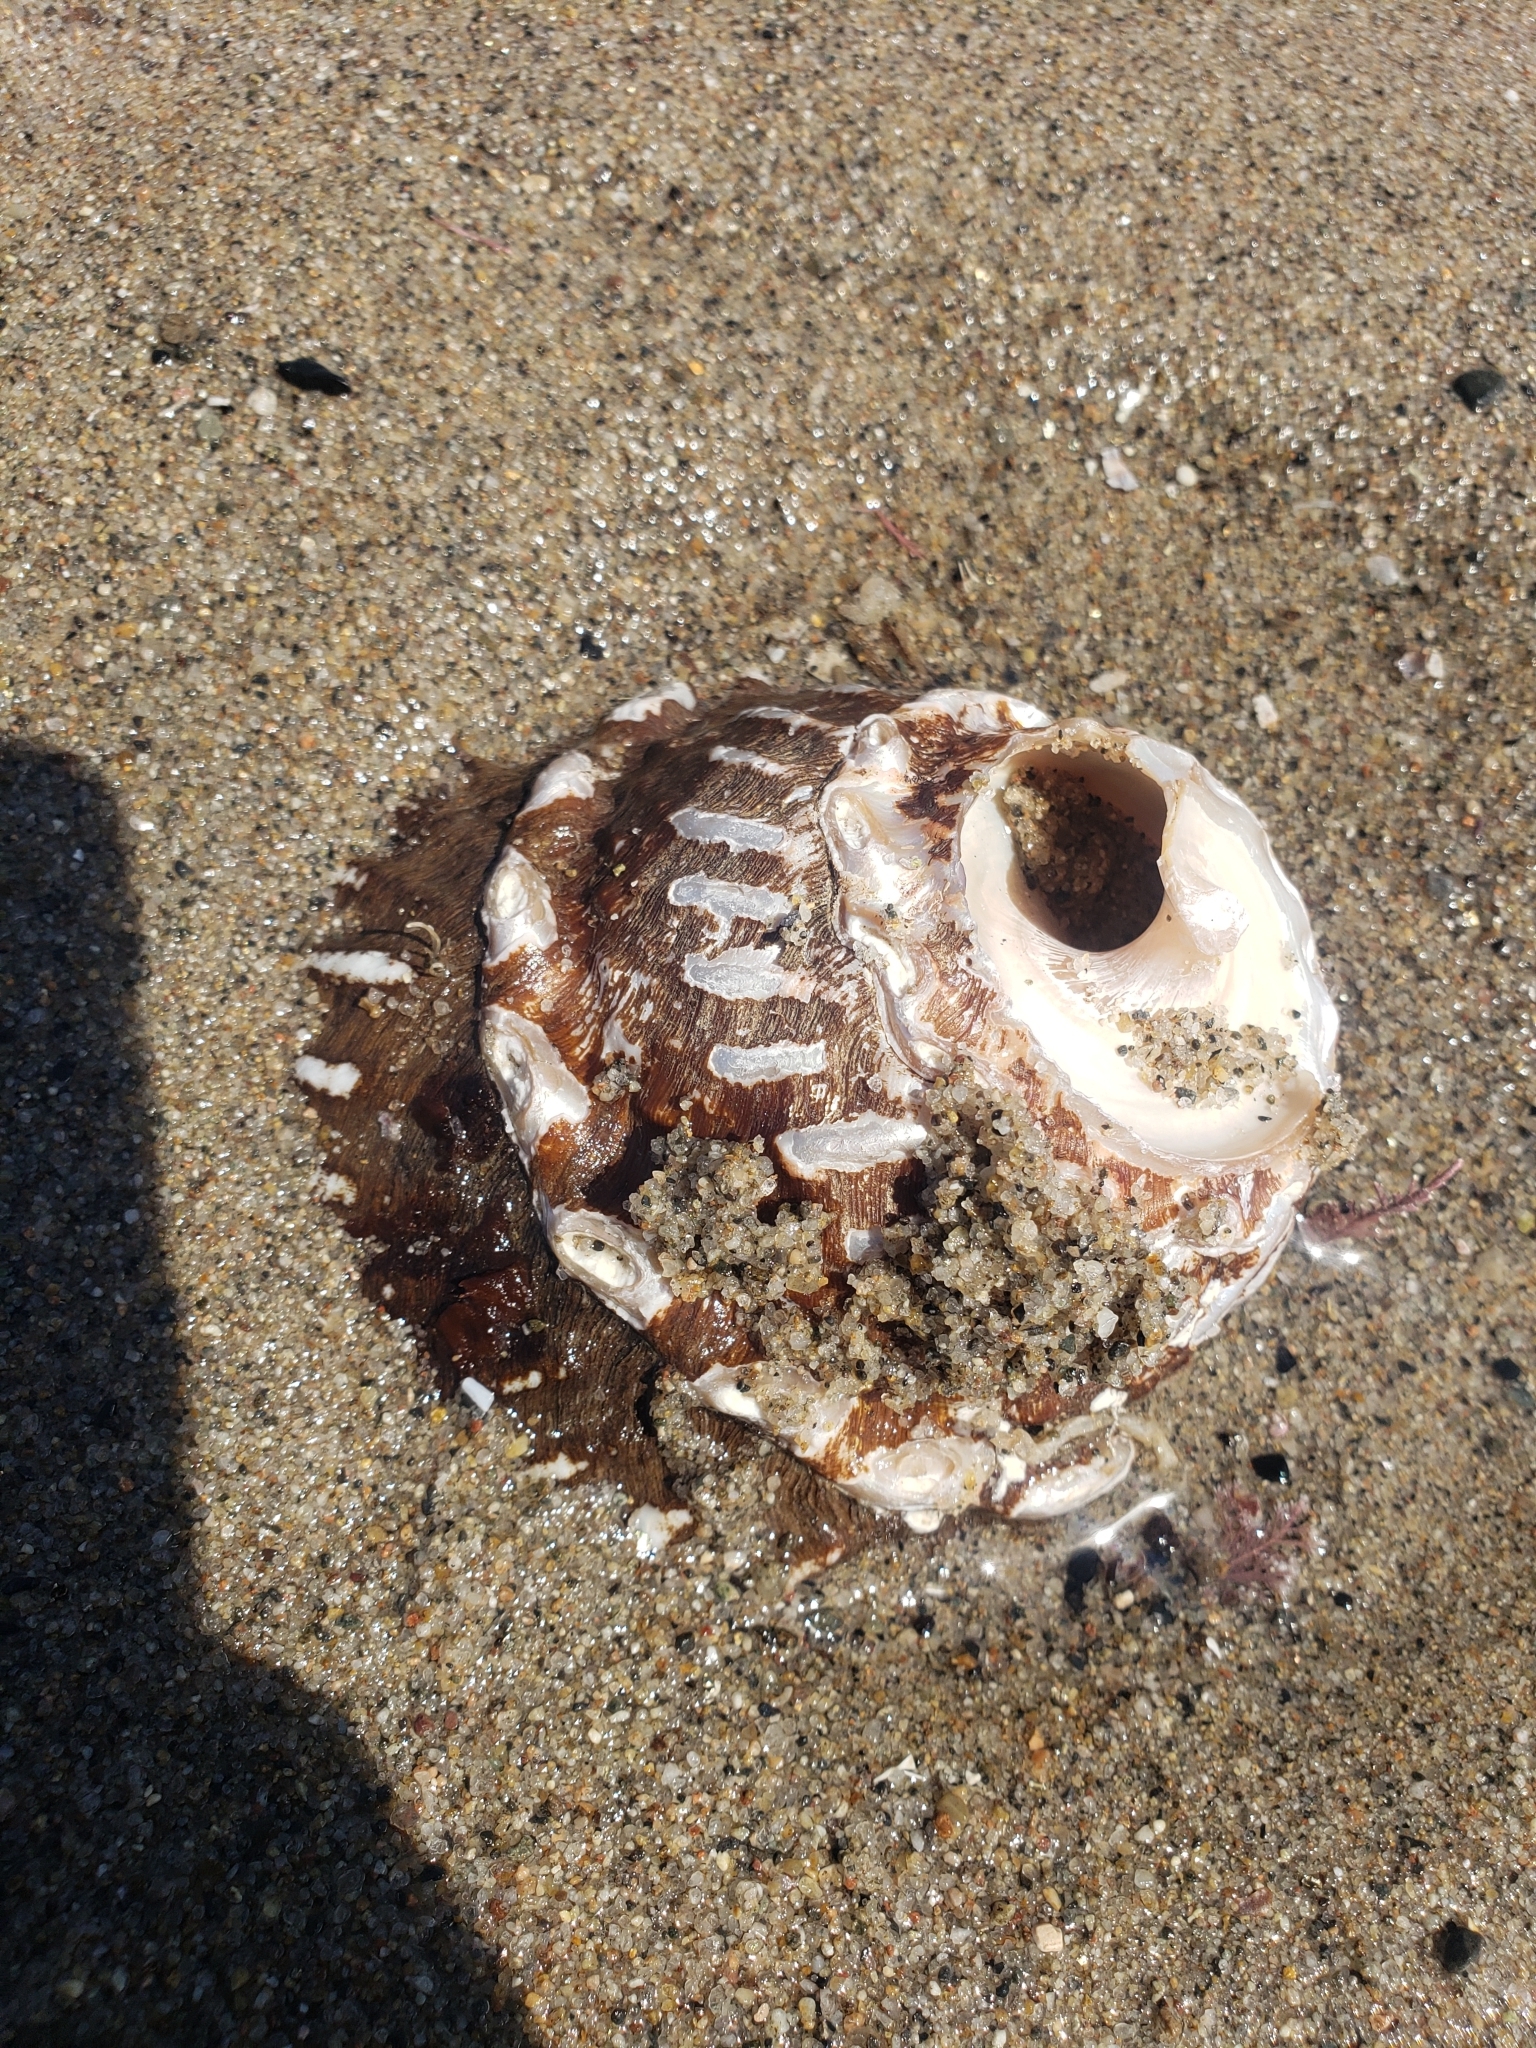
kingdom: Animalia
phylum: Mollusca
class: Gastropoda
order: Trochida
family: Turbinidae
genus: Megastraea
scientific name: Megastraea undosa
